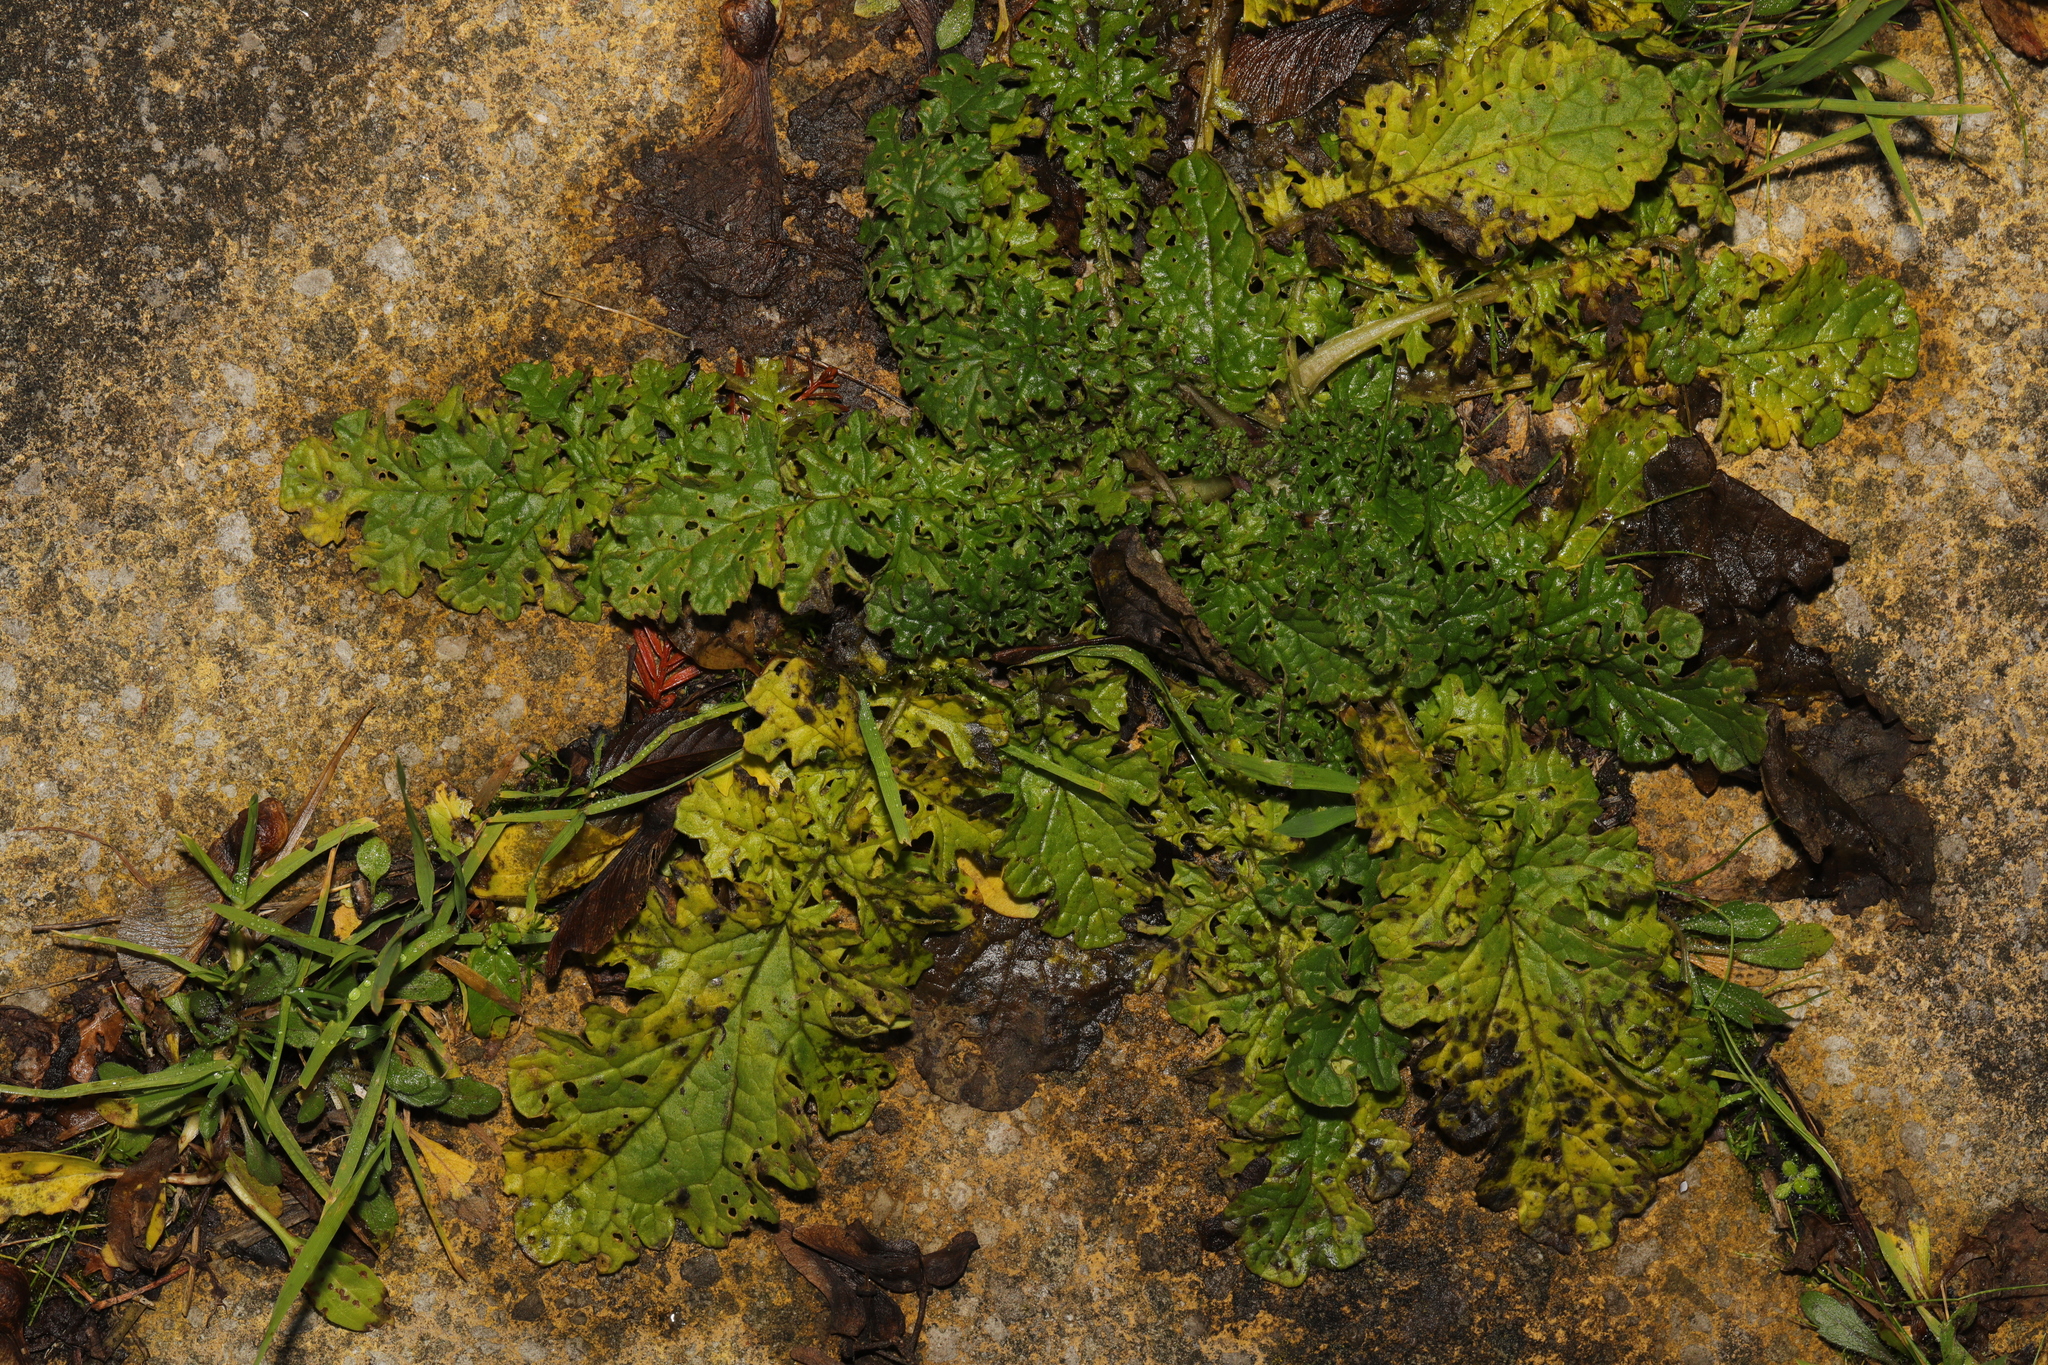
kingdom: Plantae
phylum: Tracheophyta
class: Magnoliopsida
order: Asterales
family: Asteraceae
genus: Jacobaea
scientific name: Jacobaea vulgaris
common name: Stinking willie
